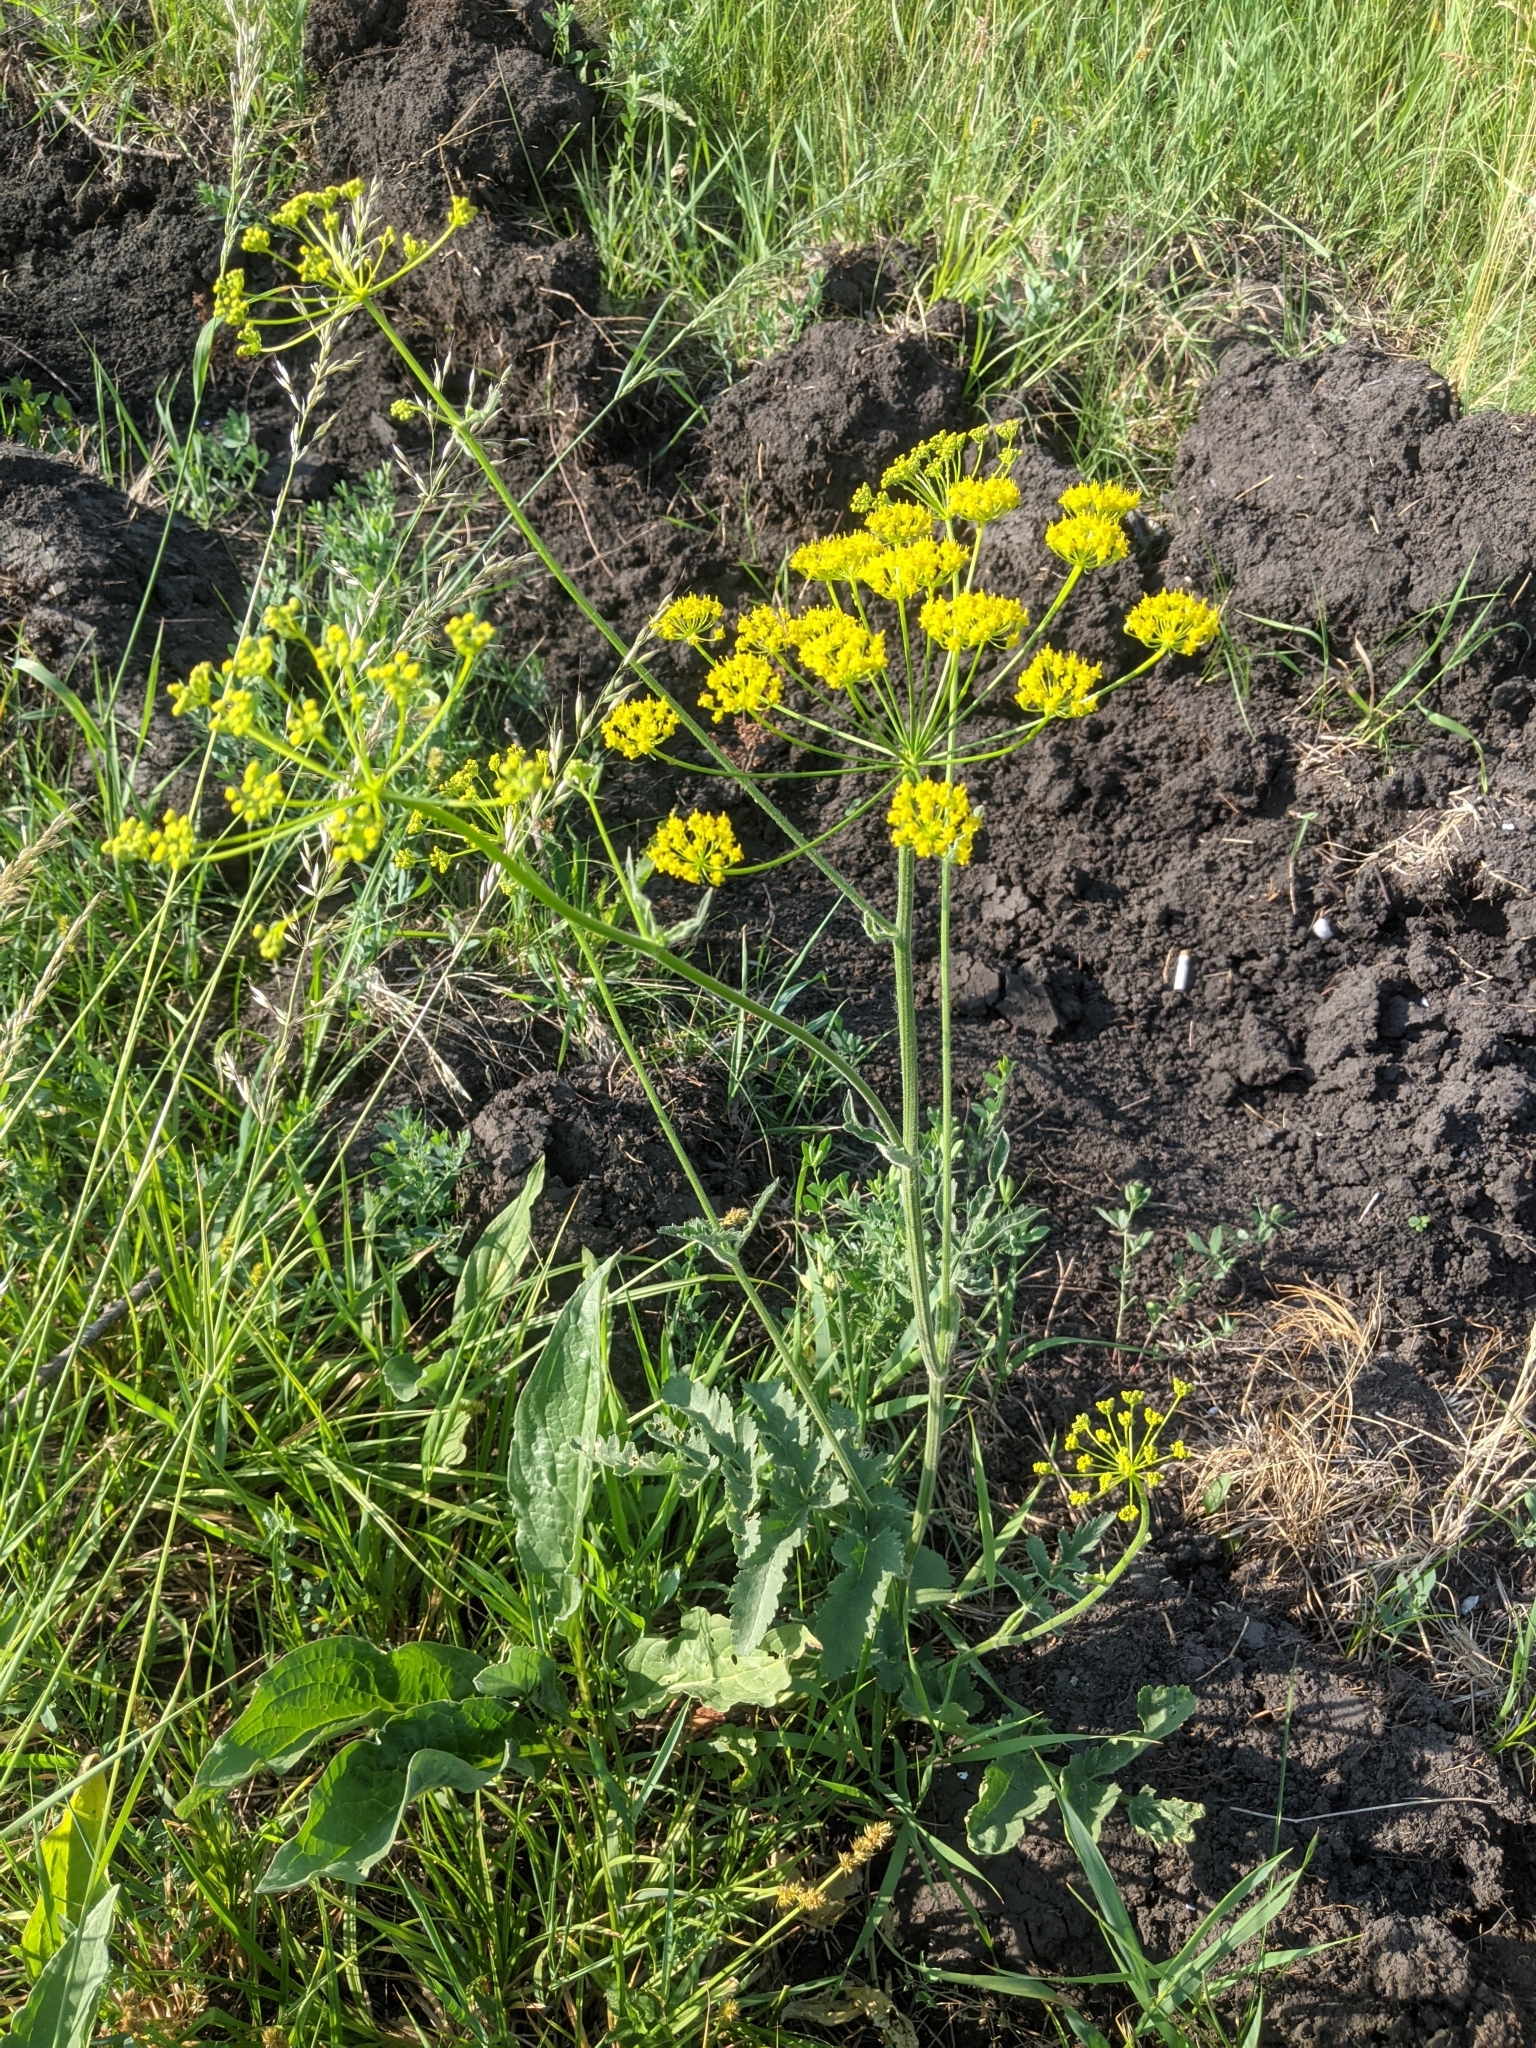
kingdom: Plantae
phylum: Tracheophyta
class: Magnoliopsida
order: Apiales
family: Apiaceae
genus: Pastinaca
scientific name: Pastinaca sativa
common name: Wild parsnip
